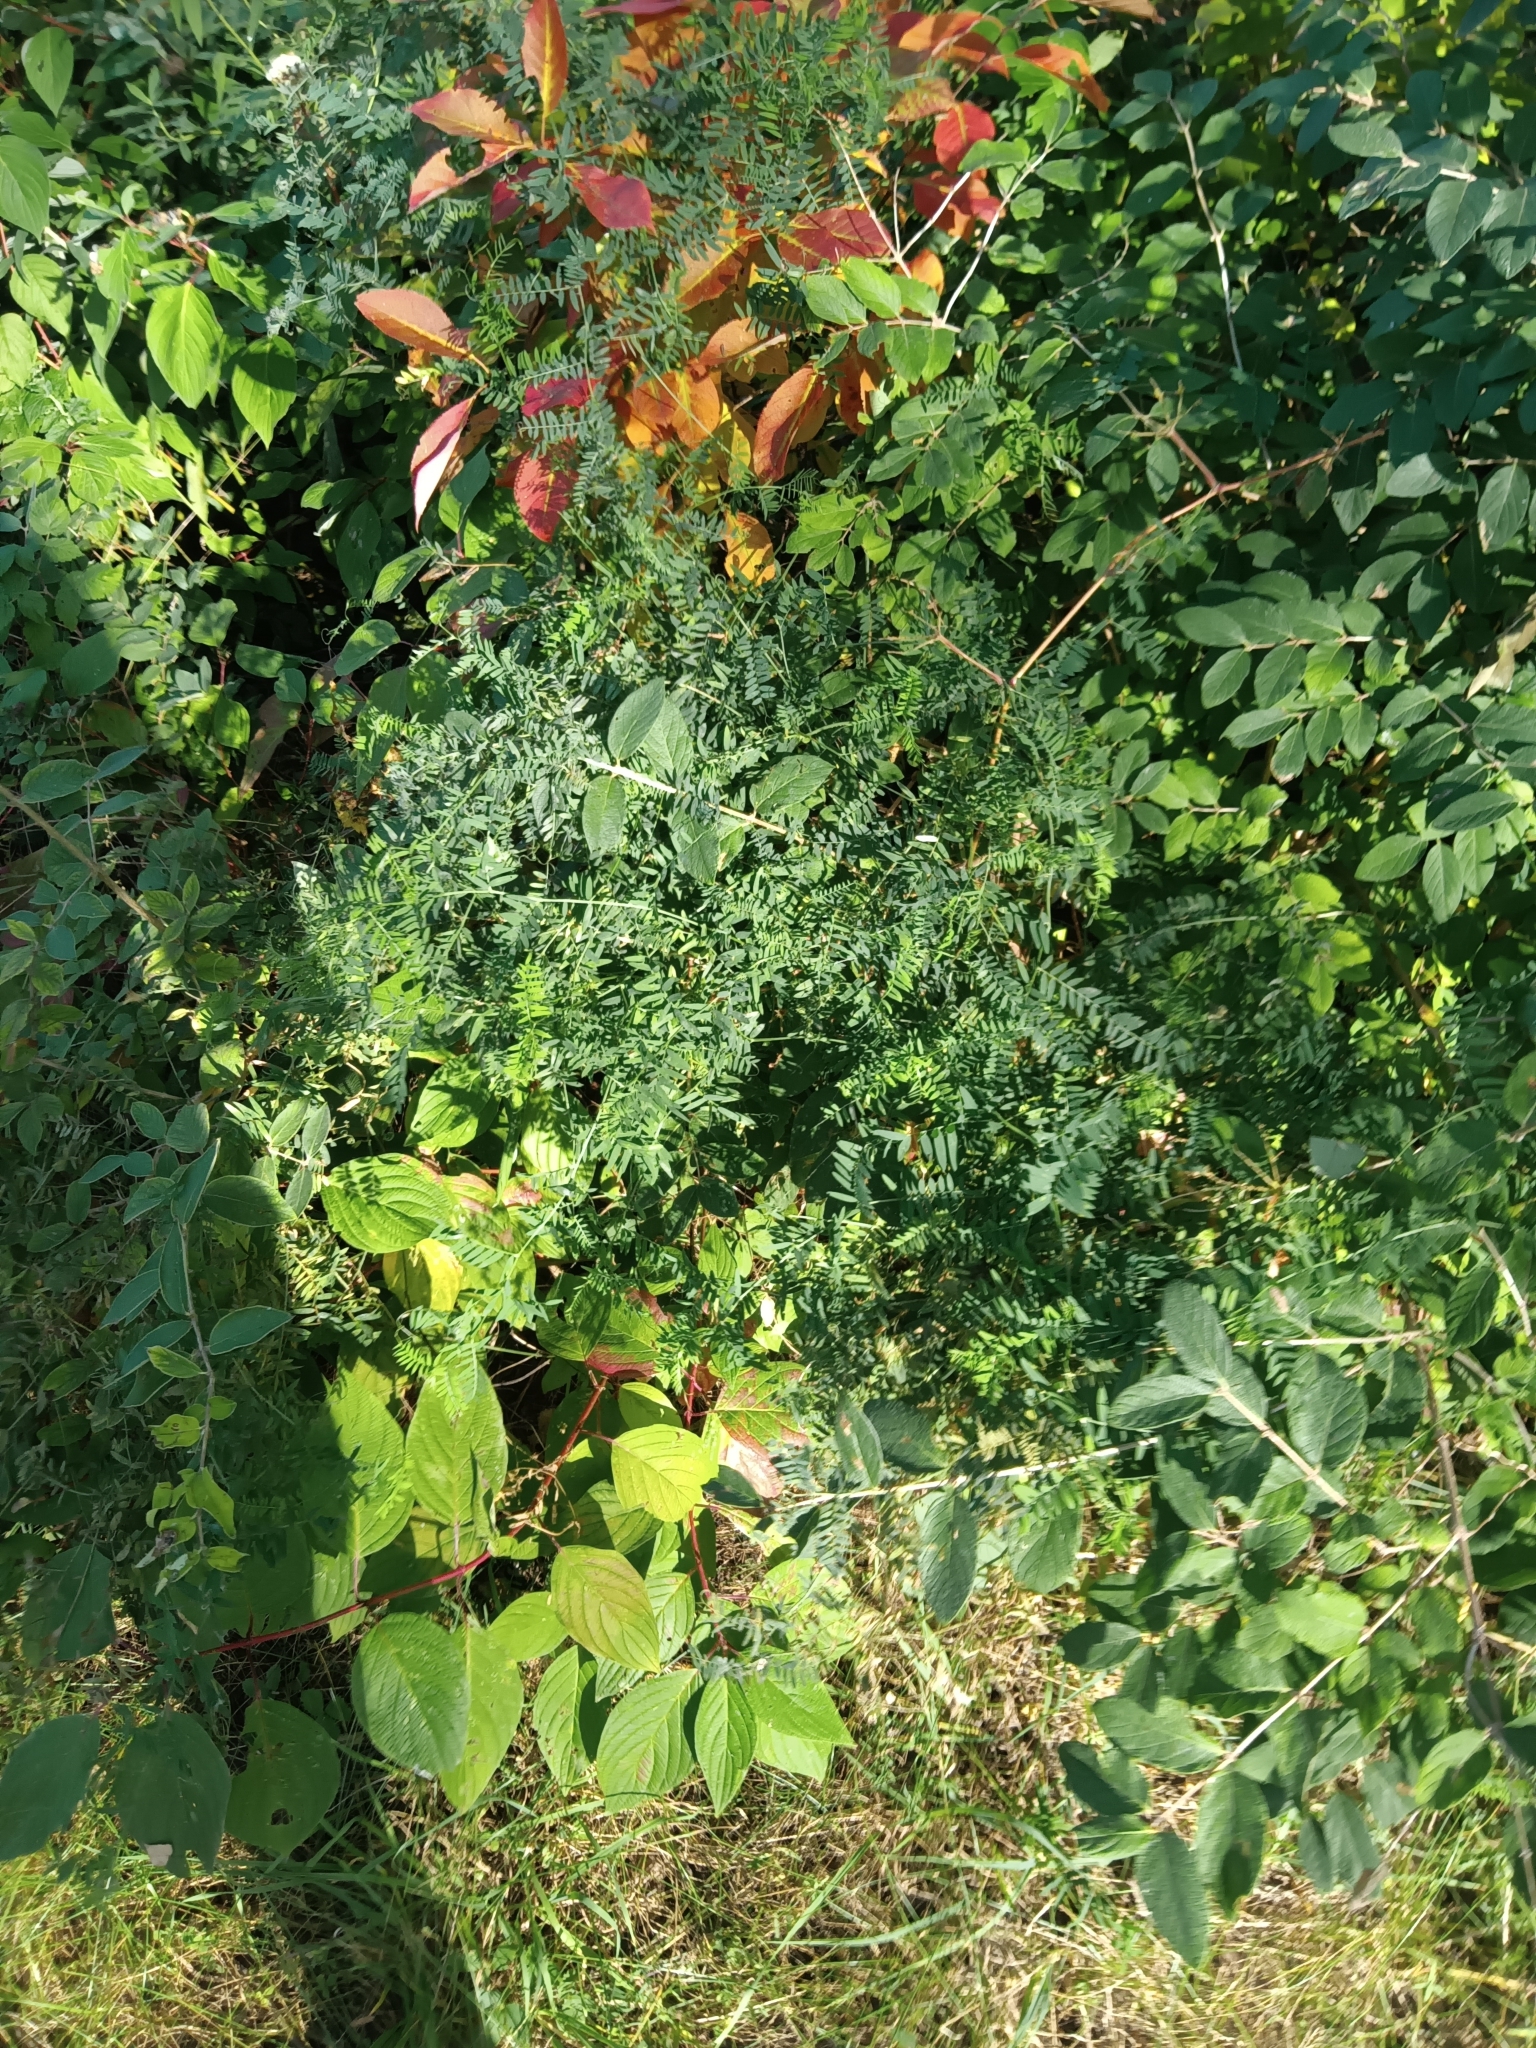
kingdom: Plantae
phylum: Tracheophyta
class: Magnoliopsida
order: Fabales
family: Fabaceae
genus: Vicia
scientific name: Vicia cracca
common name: Bird vetch
